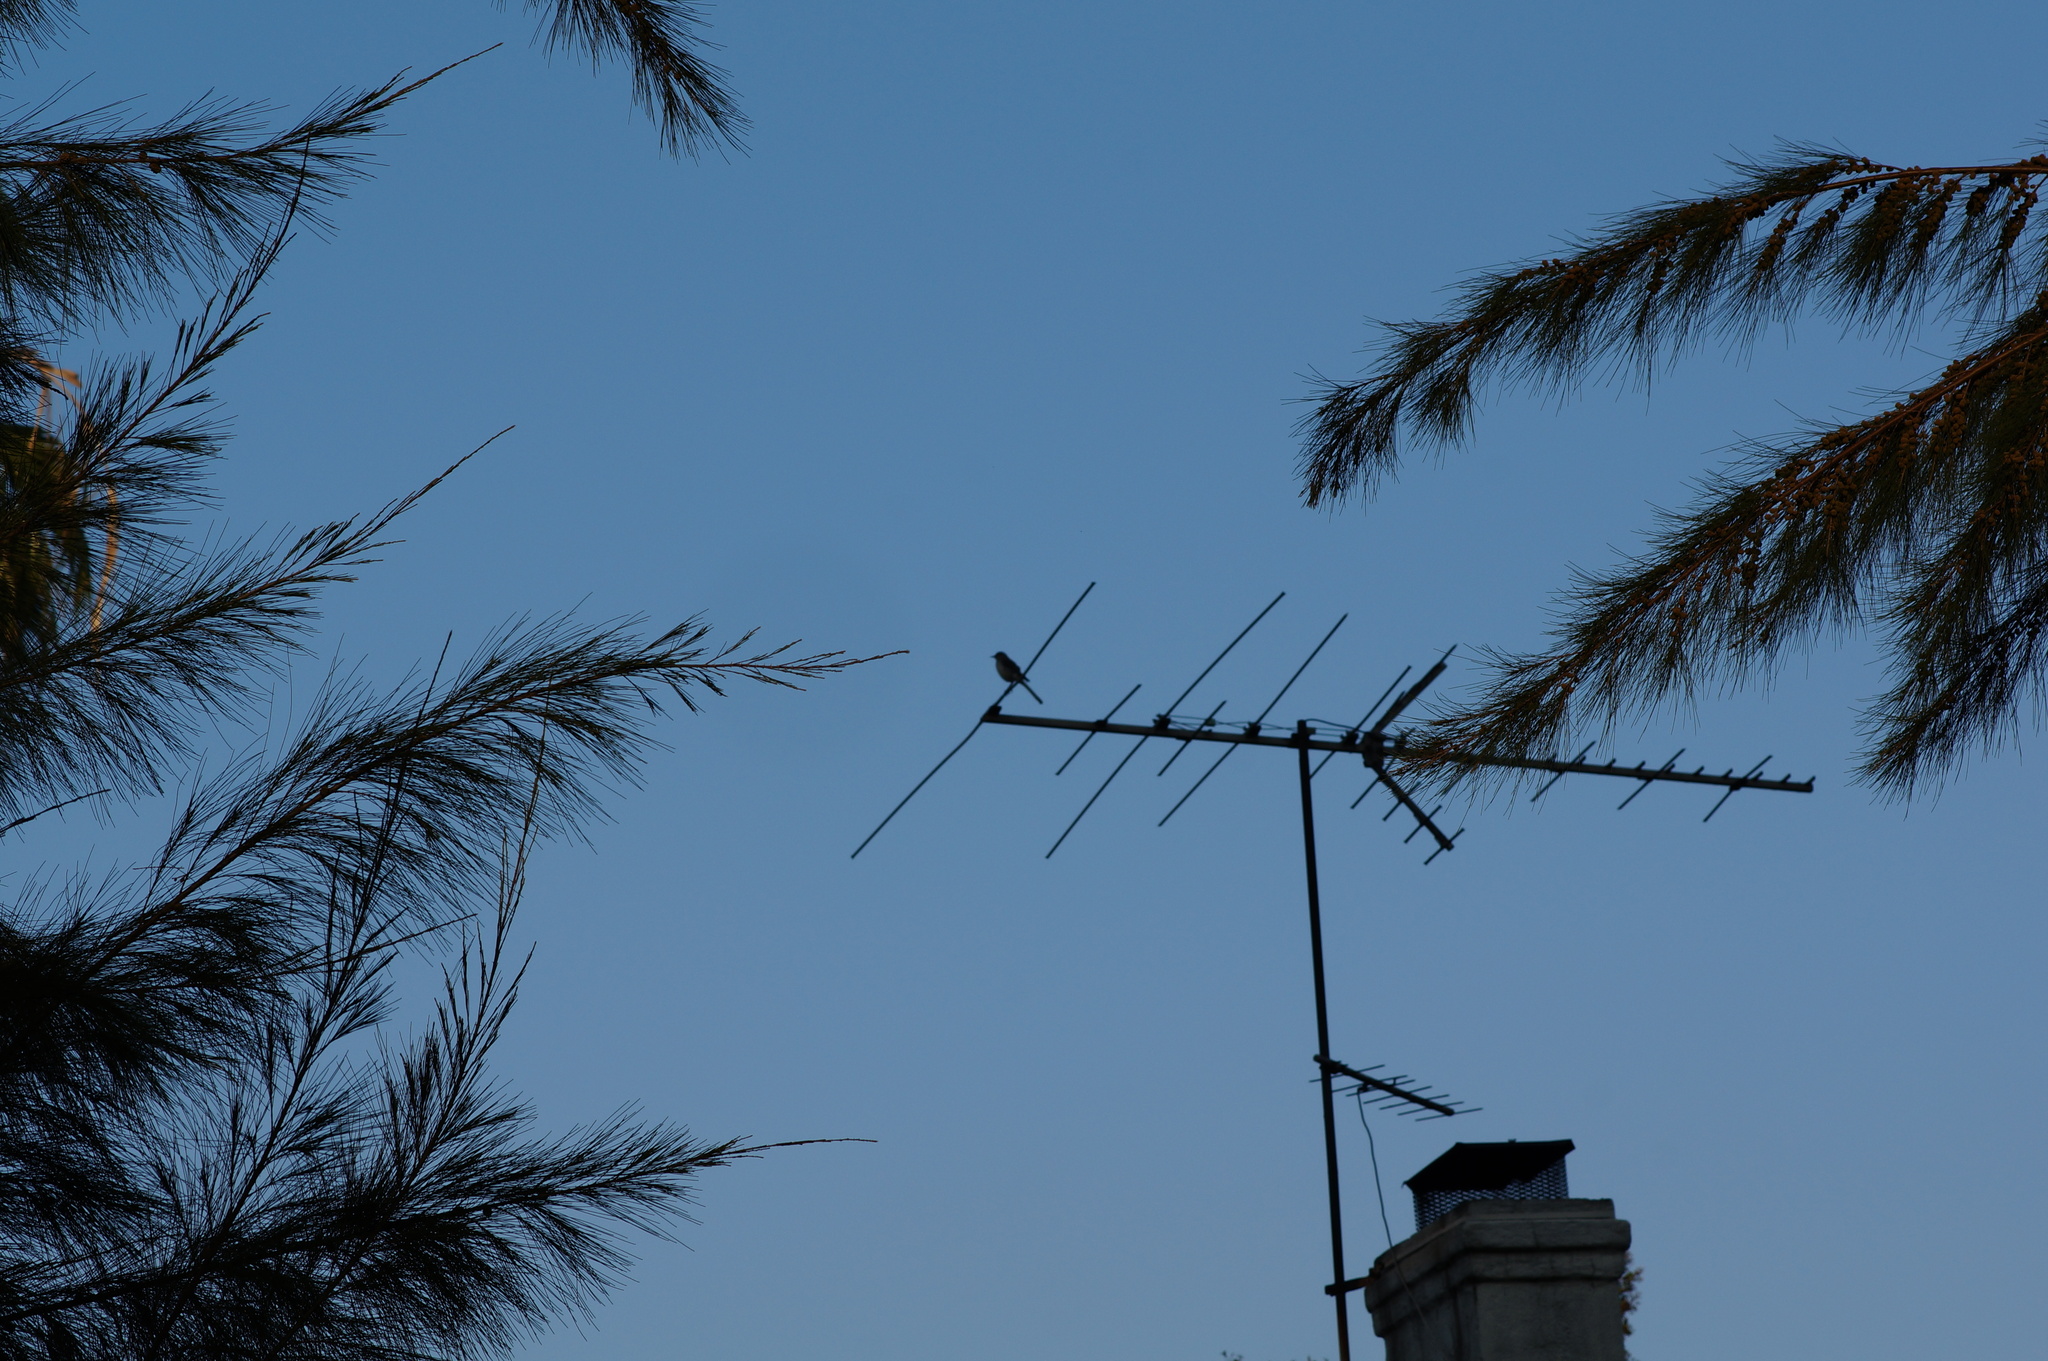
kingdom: Animalia
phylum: Chordata
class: Aves
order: Passeriformes
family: Mimidae
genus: Mimus
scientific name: Mimus polyglottos
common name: Northern mockingbird
